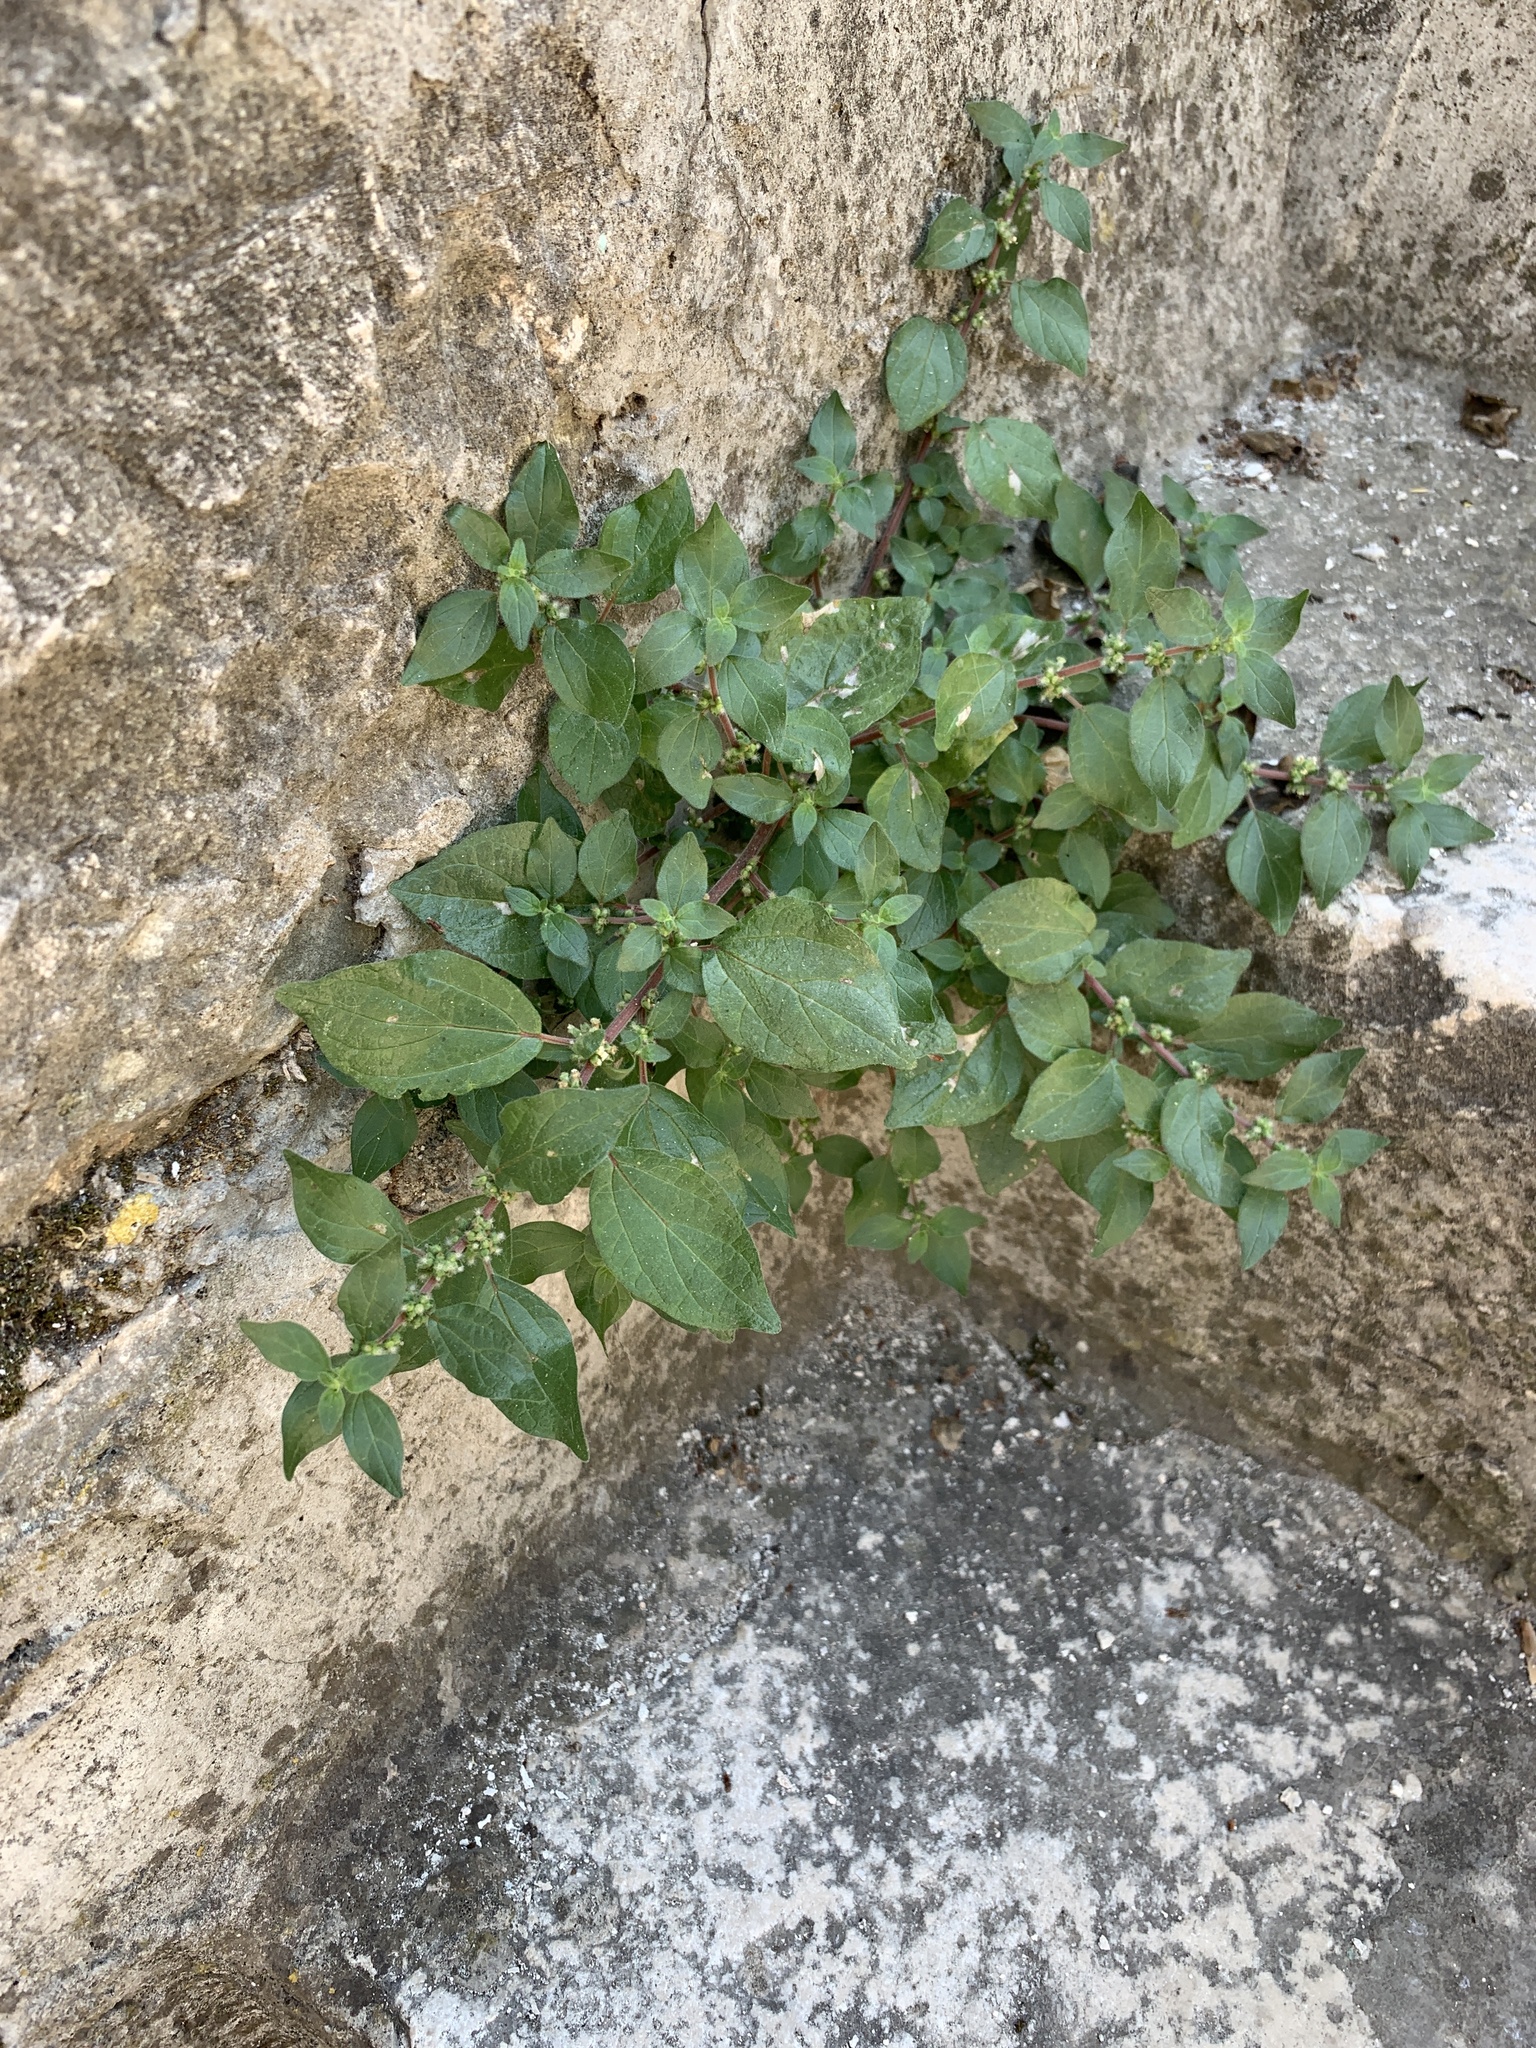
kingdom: Plantae
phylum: Tracheophyta
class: Magnoliopsida
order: Rosales
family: Urticaceae
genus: Parietaria
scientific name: Parietaria judaica
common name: Pellitory-of-the-wall
